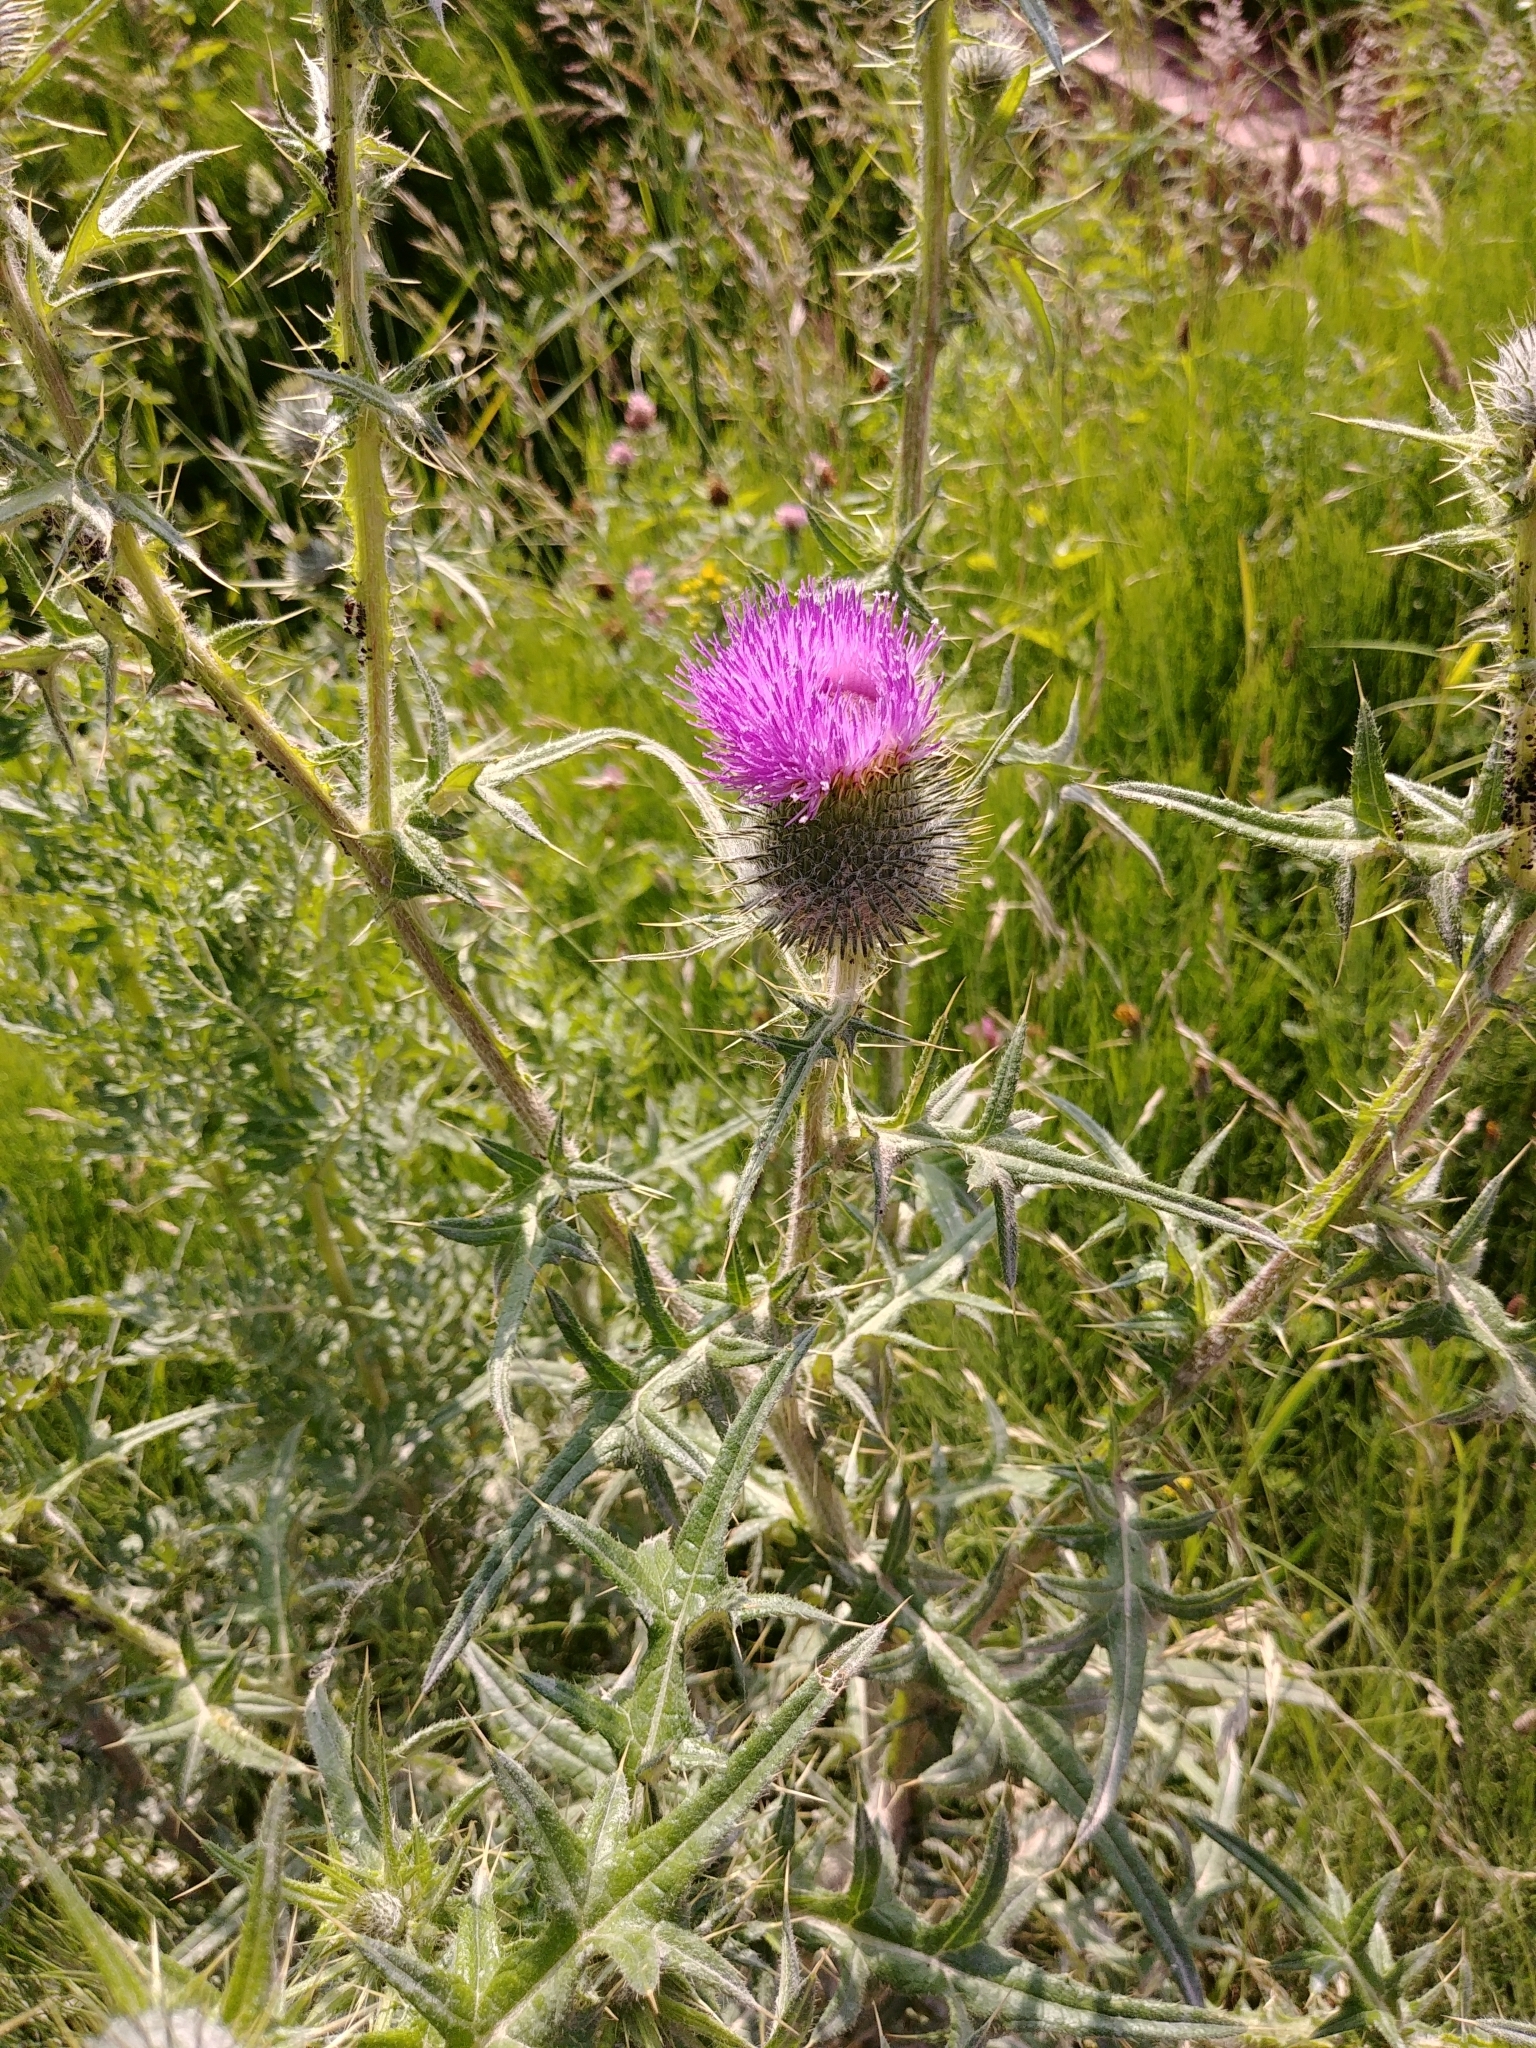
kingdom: Plantae
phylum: Tracheophyta
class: Magnoliopsida
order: Asterales
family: Asteraceae
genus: Cirsium
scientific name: Cirsium vulgare
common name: Bull thistle
